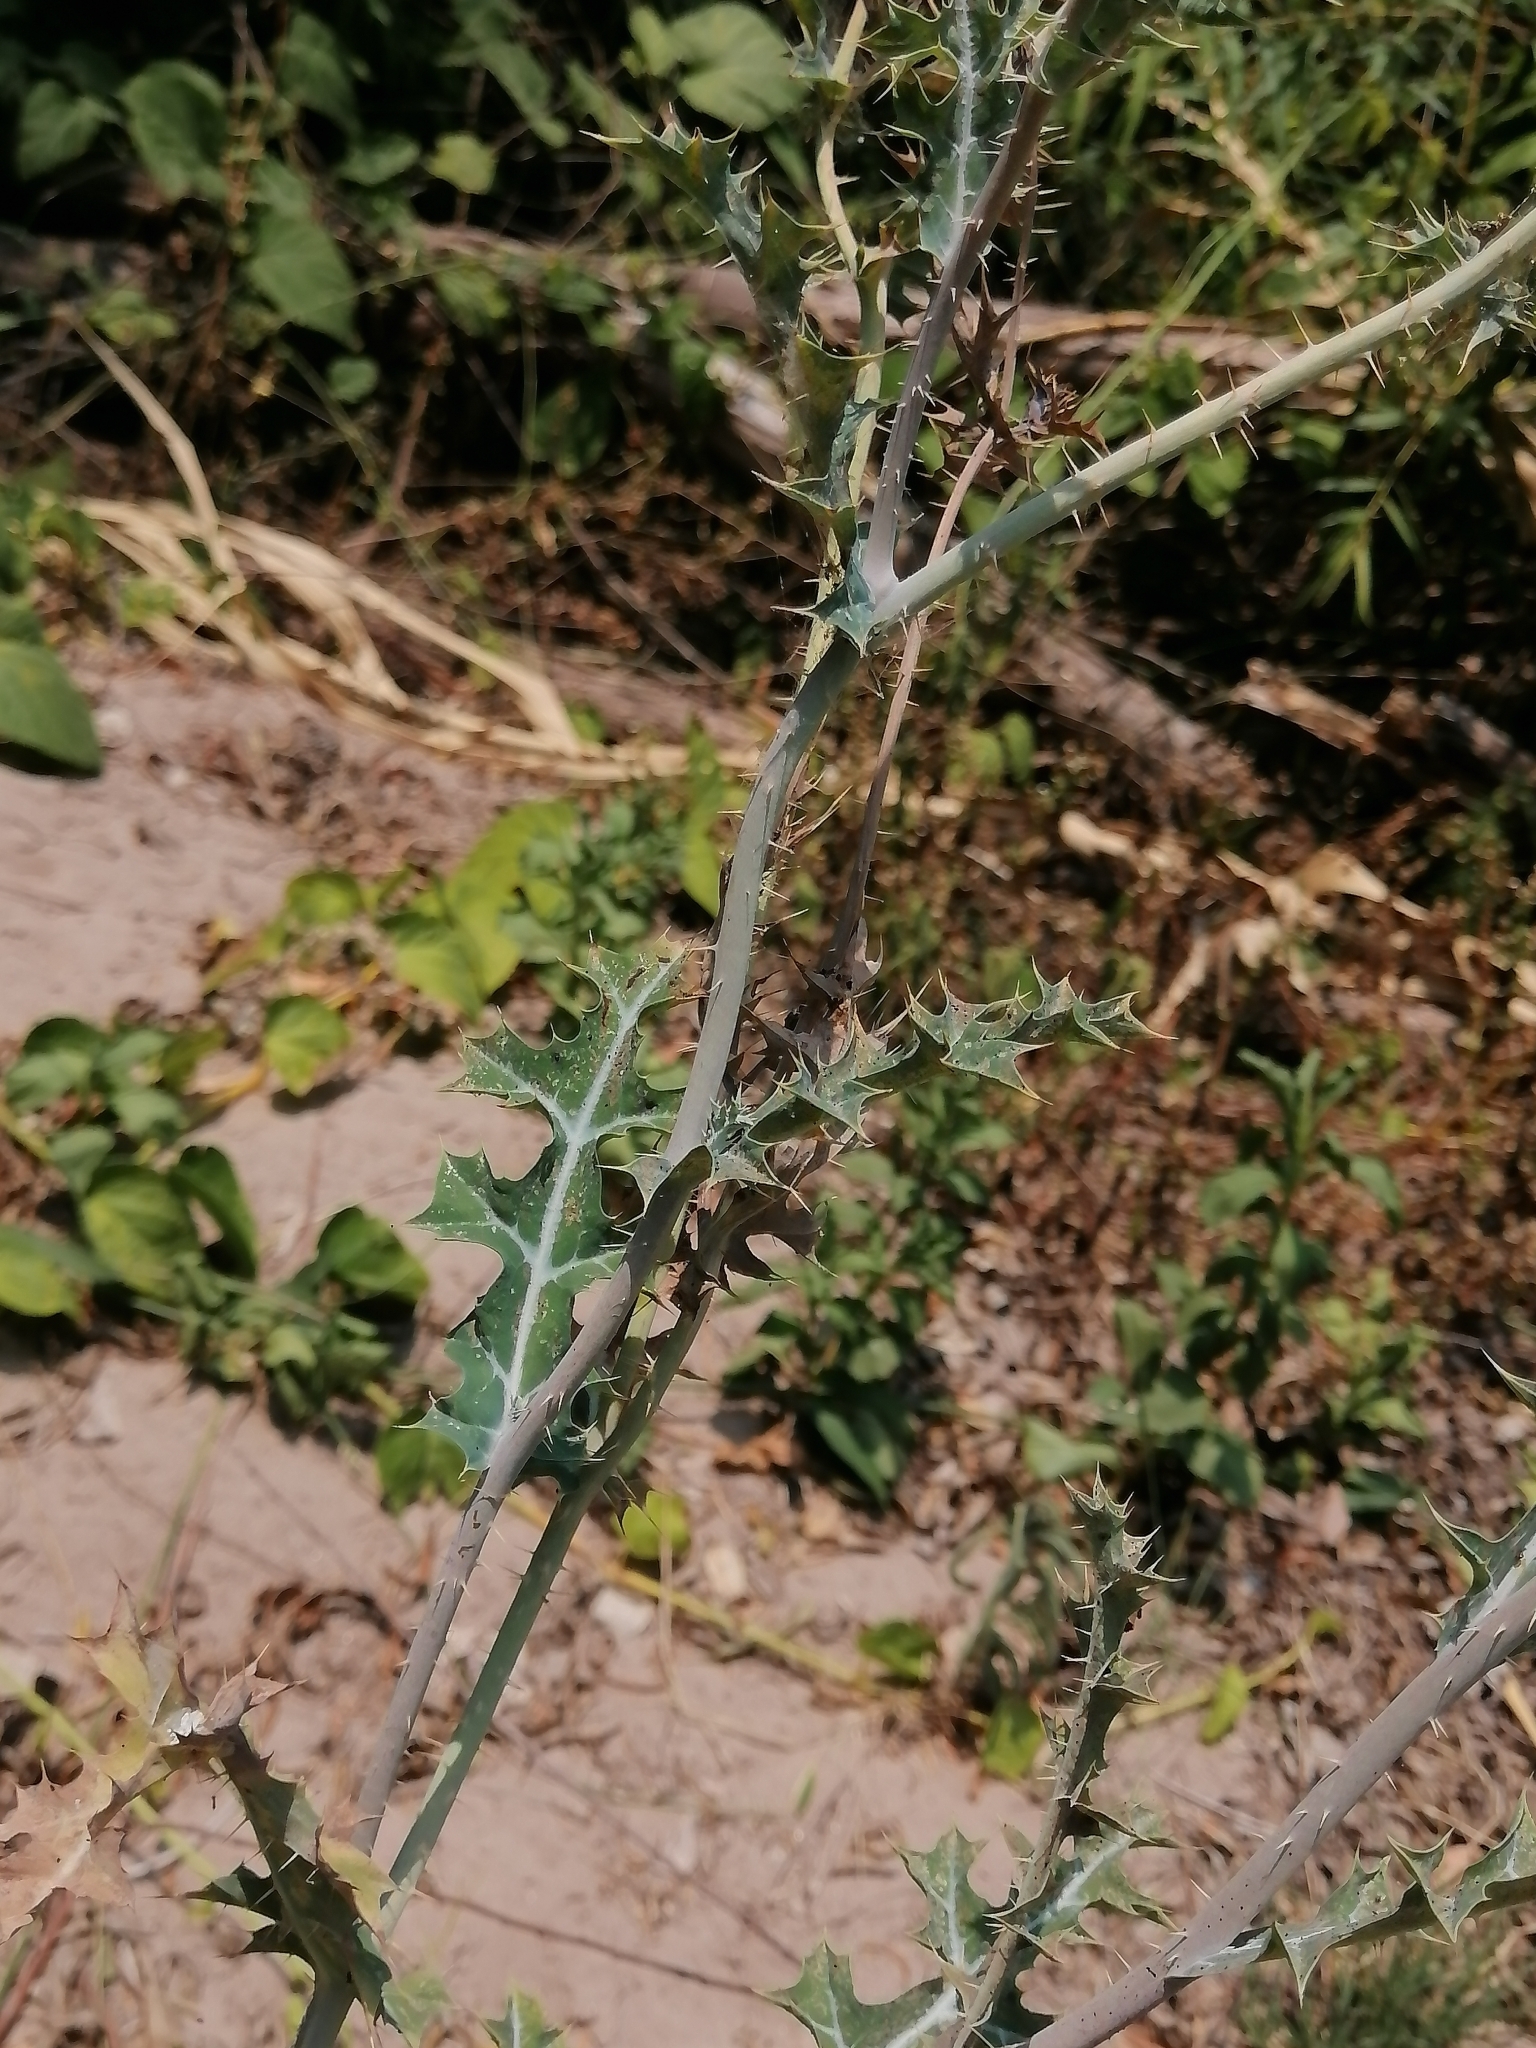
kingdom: Plantae
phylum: Tracheophyta
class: Magnoliopsida
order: Ranunculales
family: Papaveraceae
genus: Argemone
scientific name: Argemone superba
